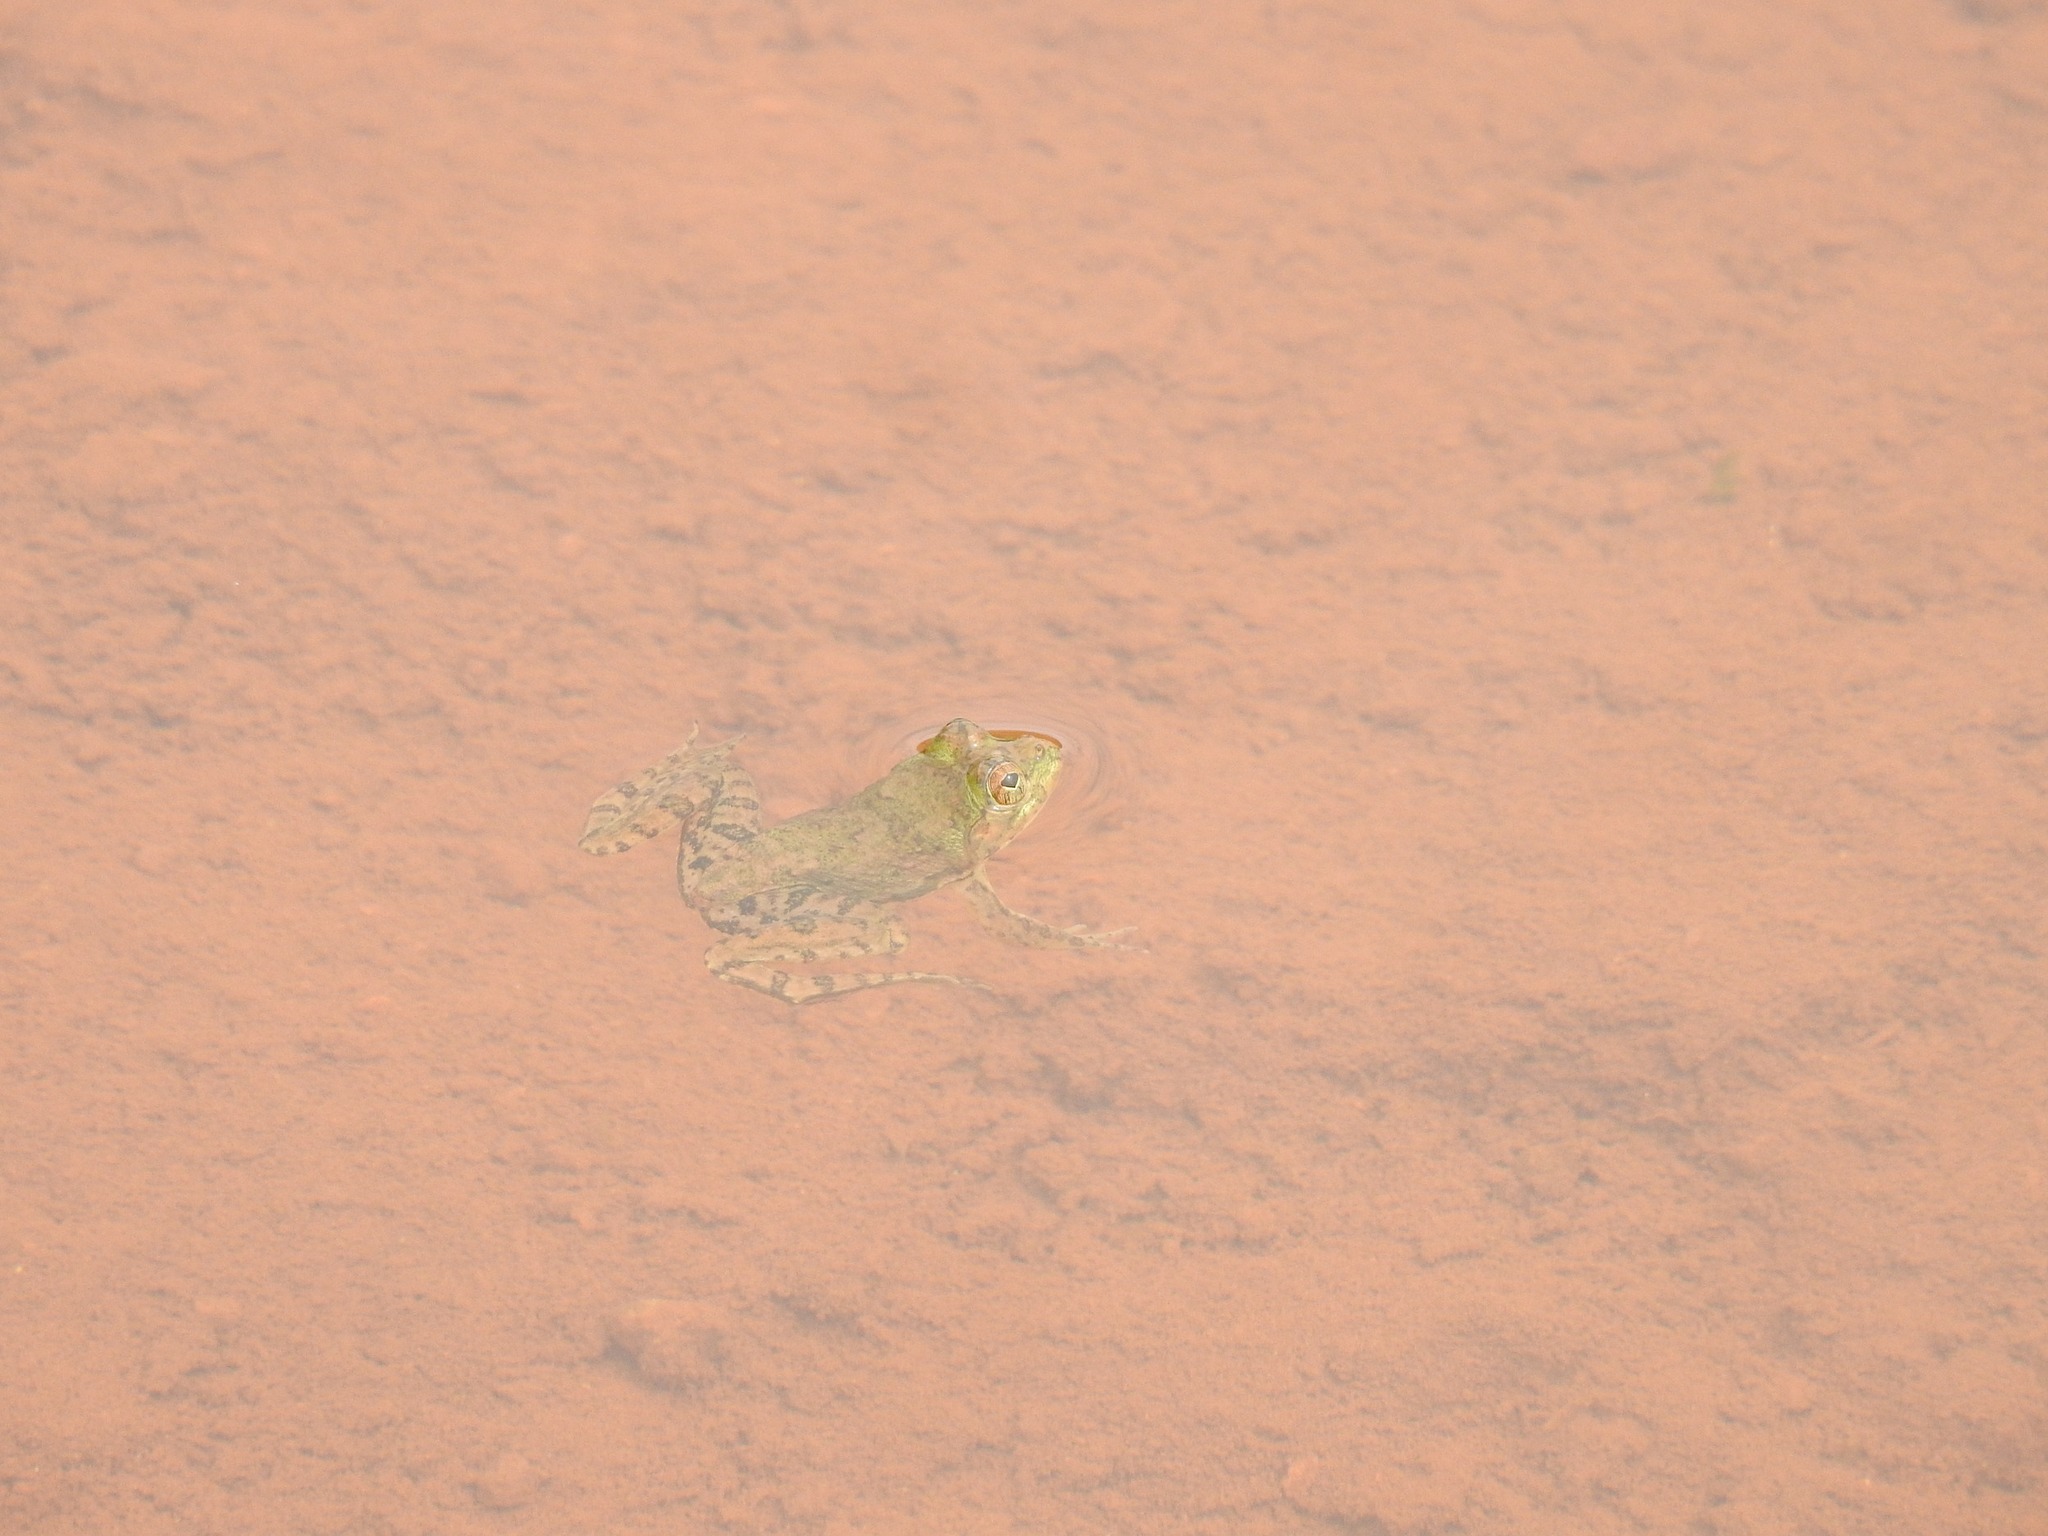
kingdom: Animalia
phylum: Chordata
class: Amphibia
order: Anura
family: Dicroglossidae
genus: Euphlyctis
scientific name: Euphlyctis cyanophlyctis
